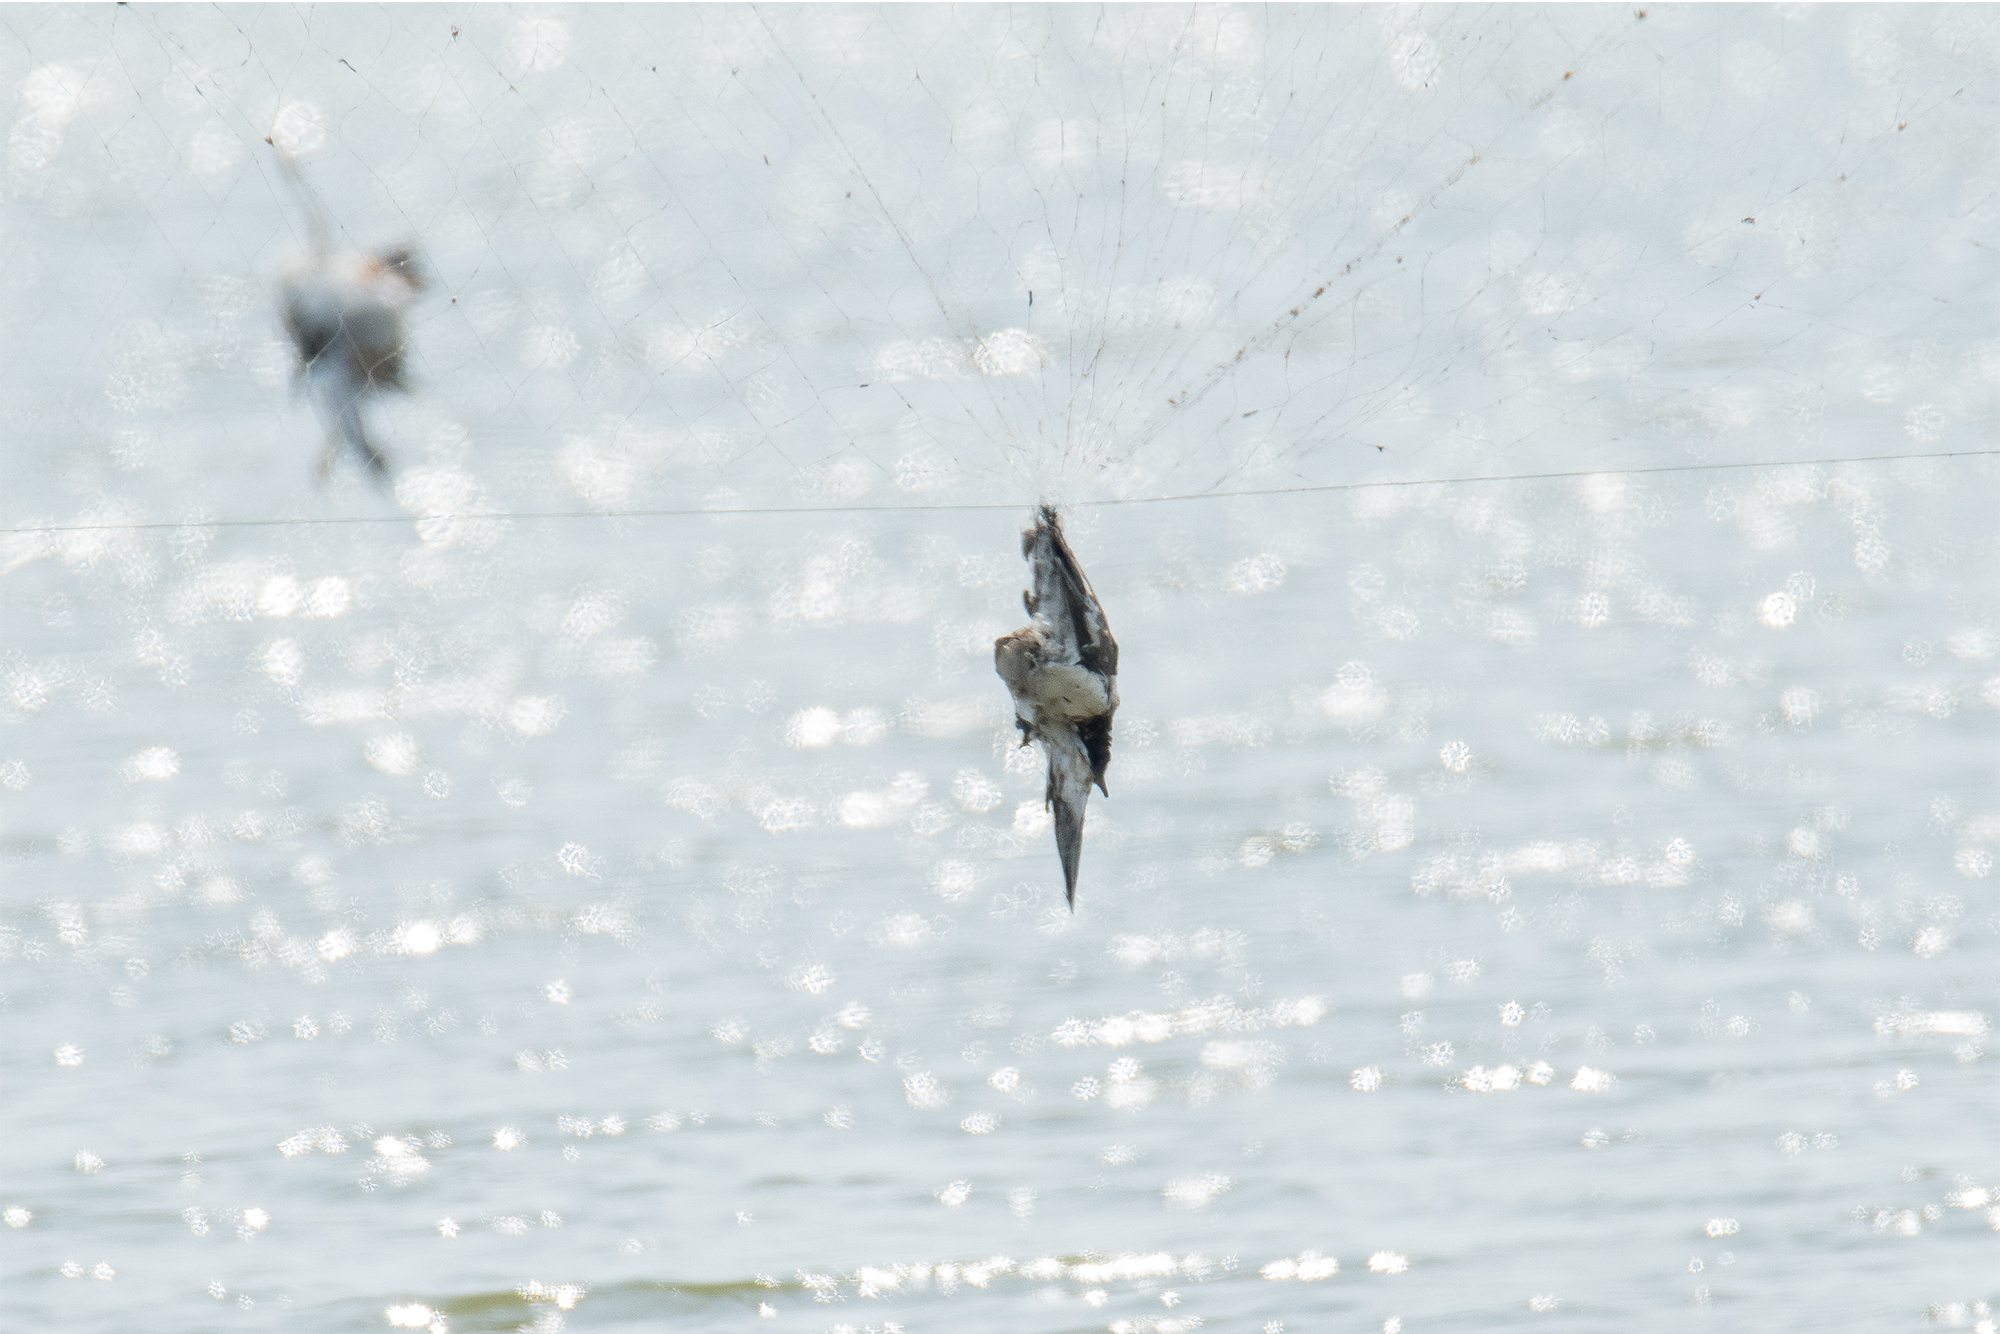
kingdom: Animalia
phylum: Chordata
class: Aves
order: Charadriiformes
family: Charadriidae
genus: Vanellus
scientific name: Vanellus indicus
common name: Red-wattled lapwing
